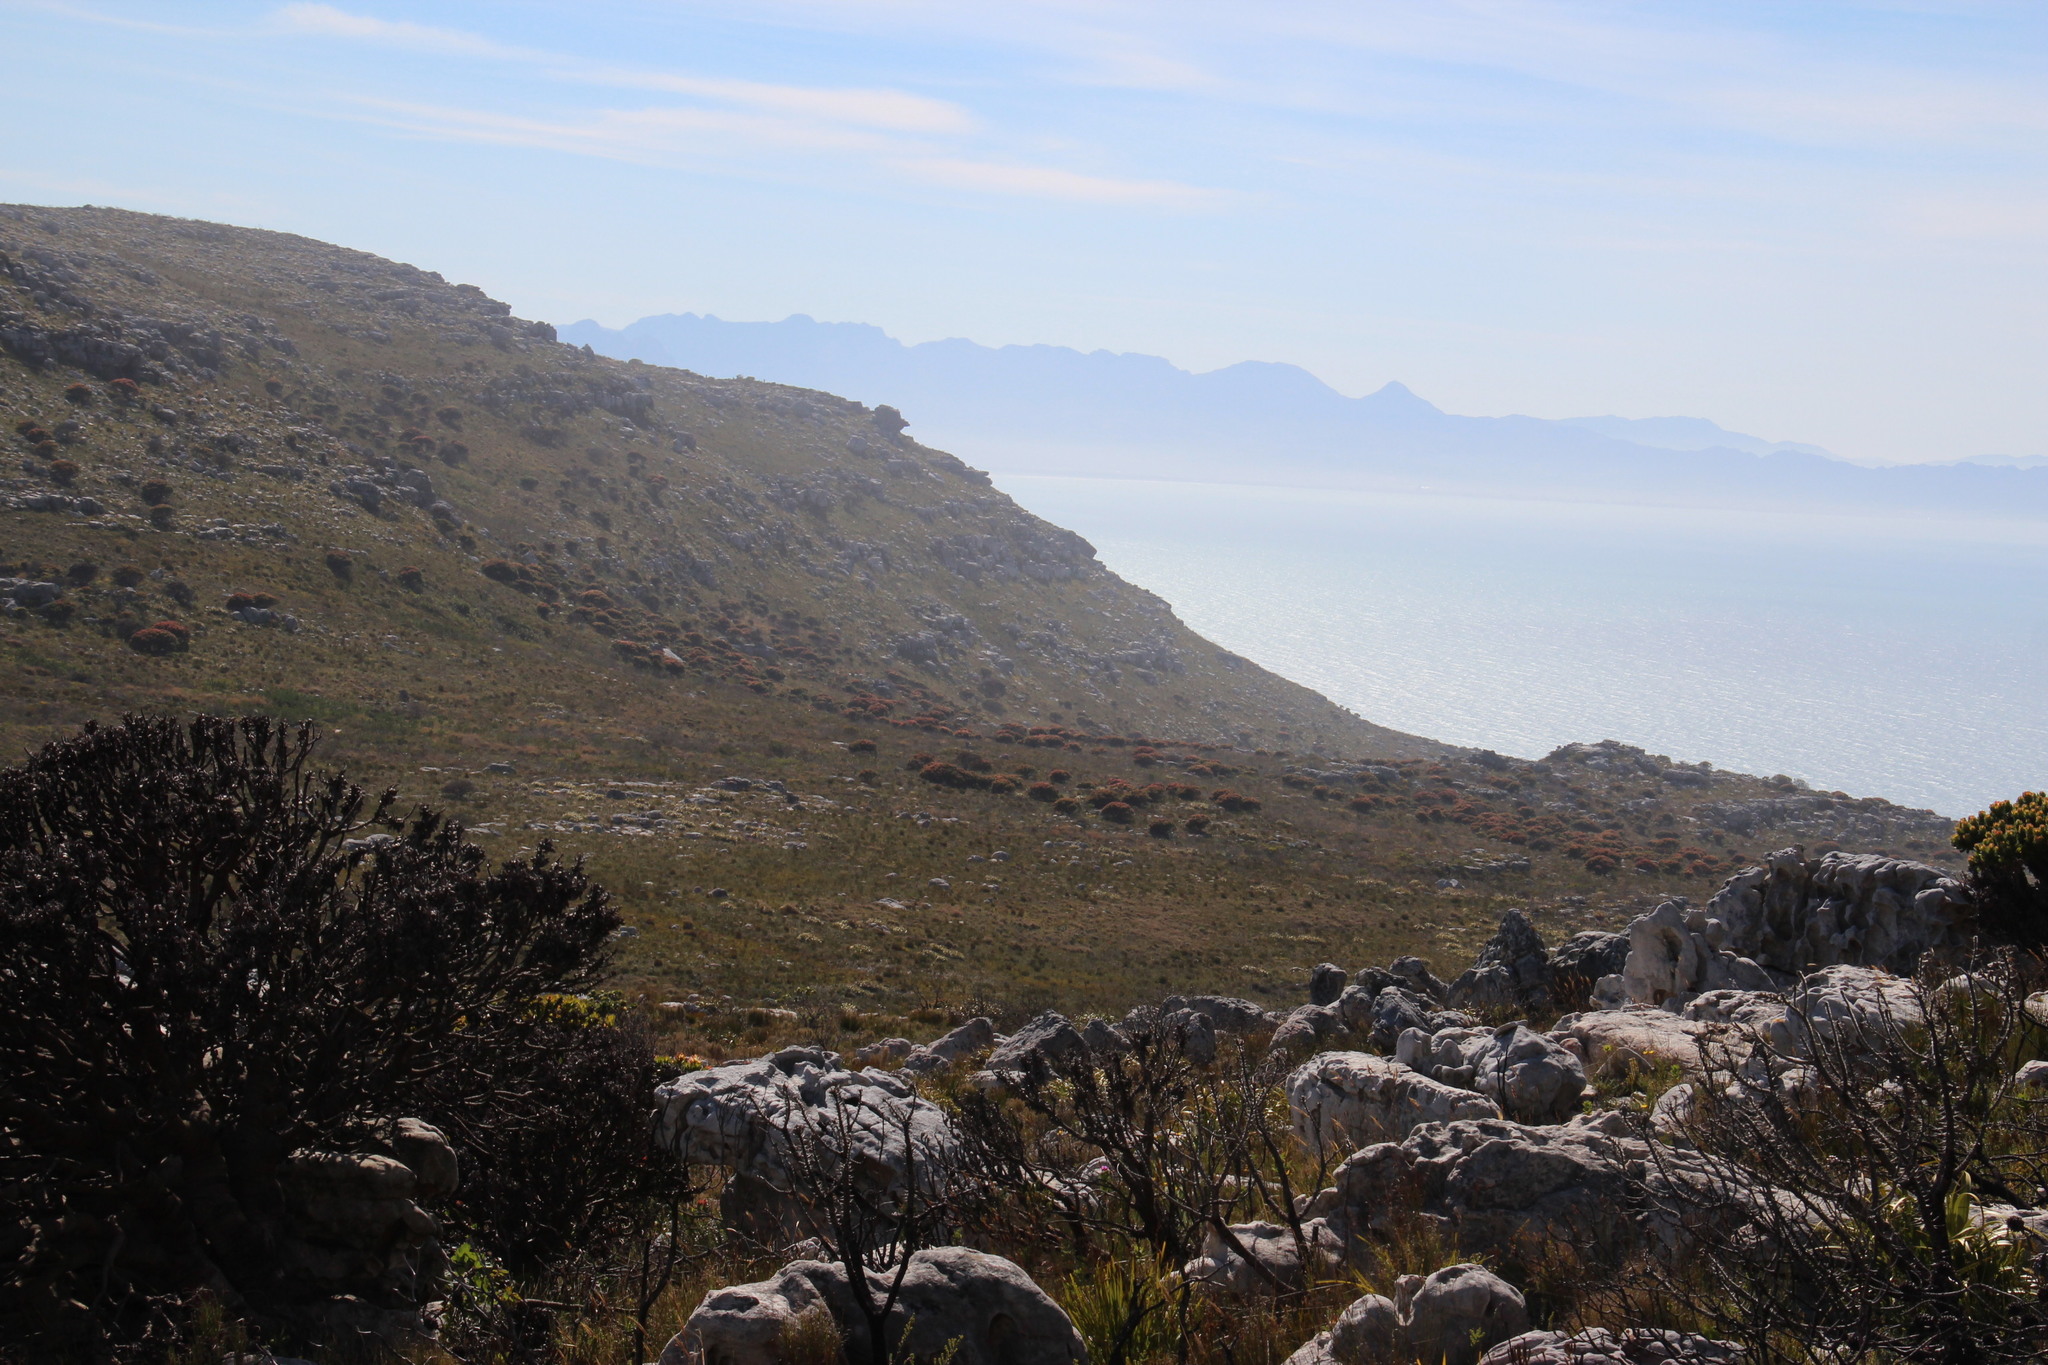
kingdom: Plantae
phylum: Tracheophyta
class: Magnoliopsida
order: Proteales
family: Proteaceae
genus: Mimetes
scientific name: Mimetes fimbriifolius
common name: Fringed bottlebrush
